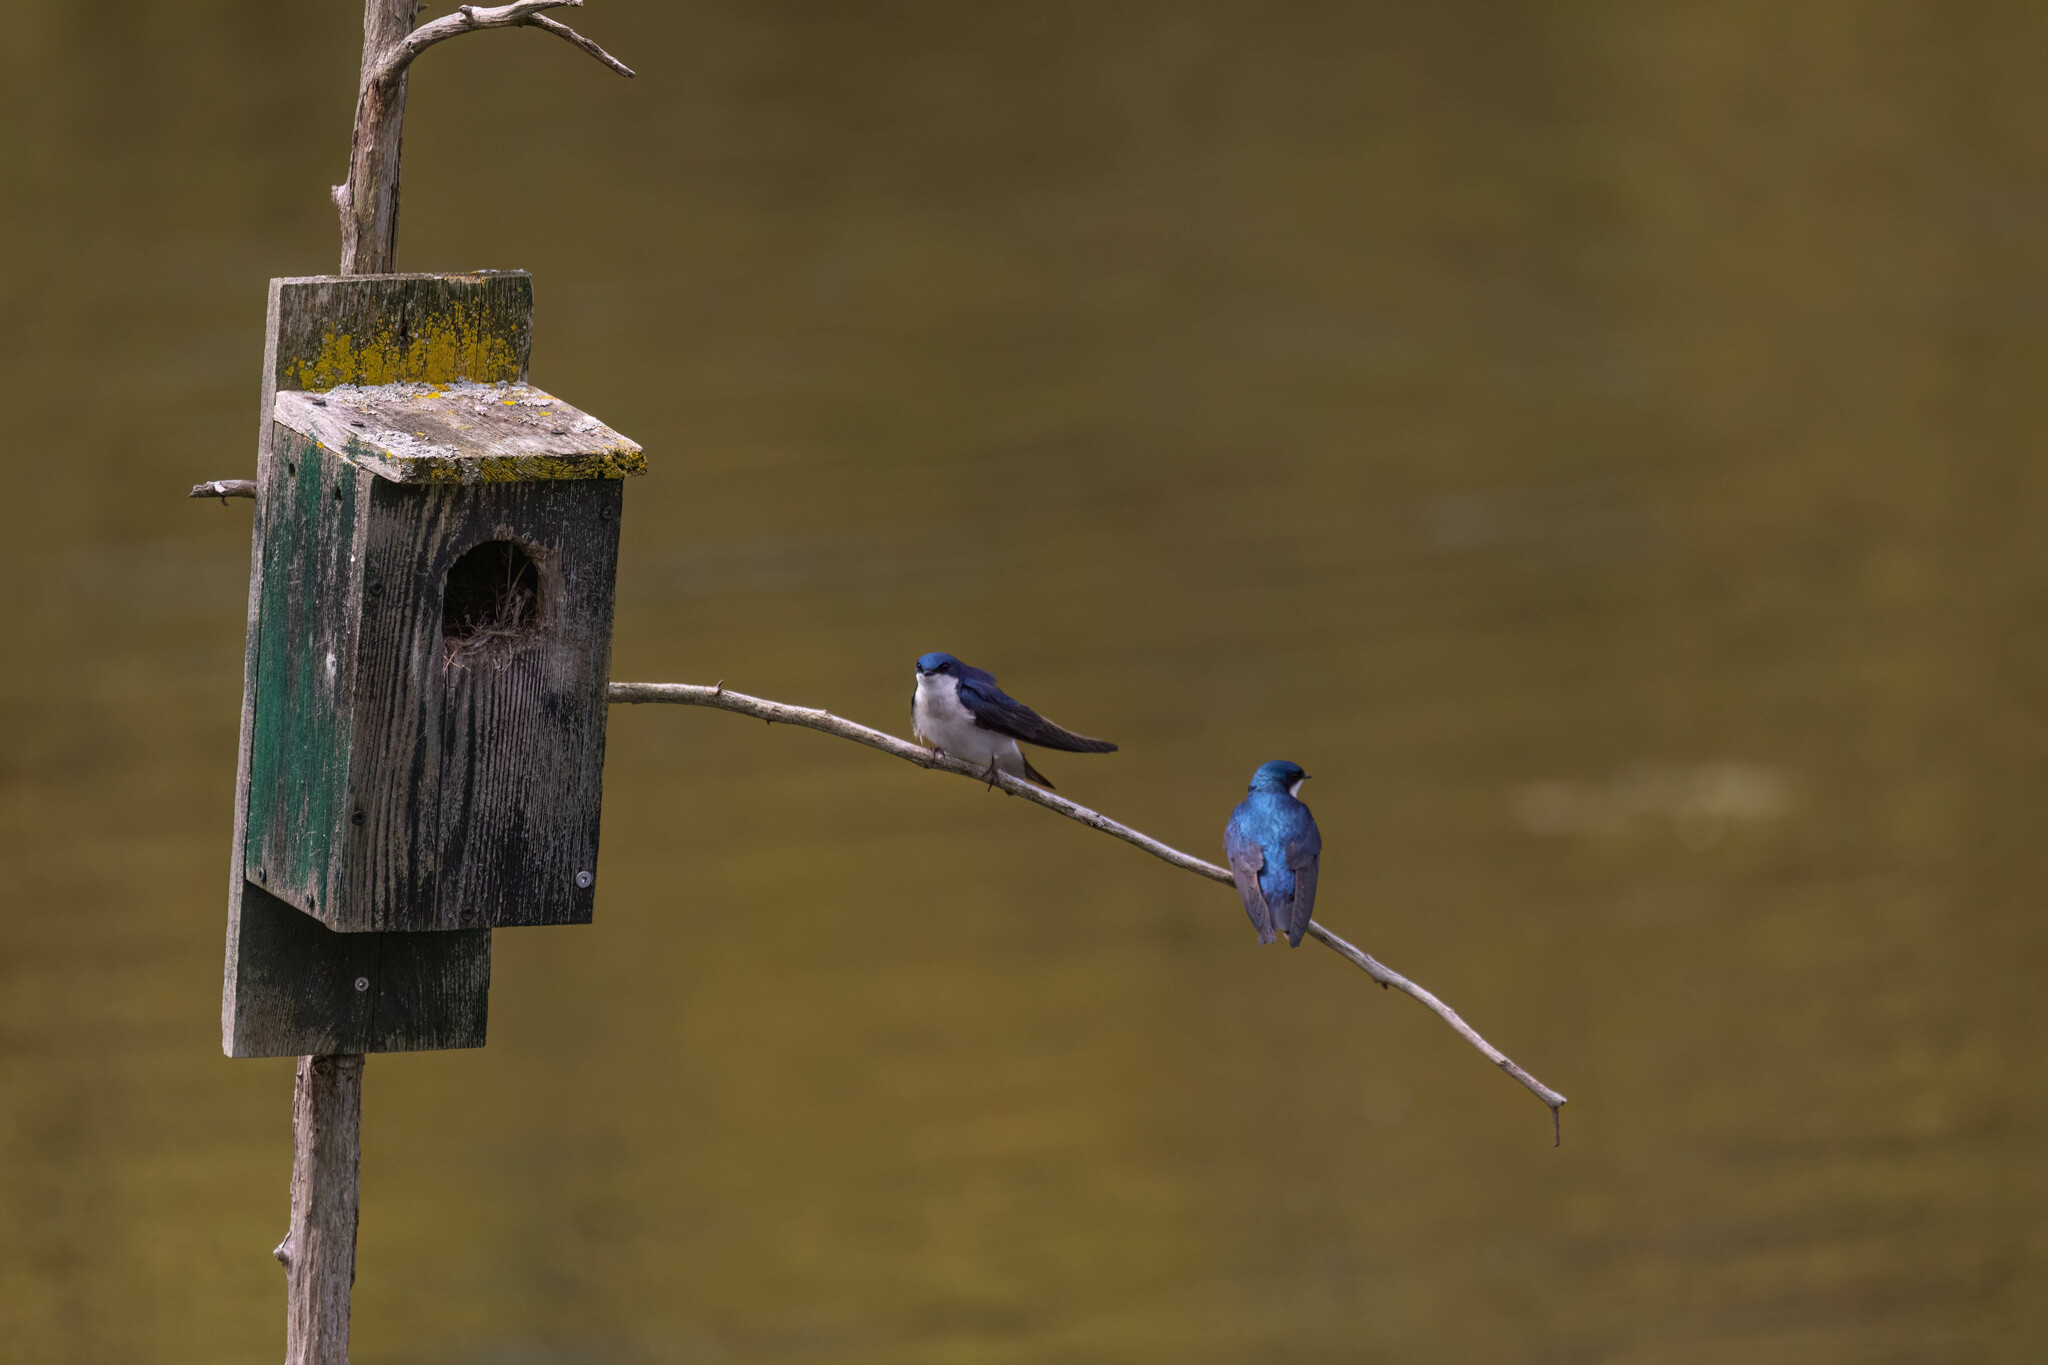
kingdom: Animalia
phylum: Chordata
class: Aves
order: Passeriformes
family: Hirundinidae
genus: Tachycineta
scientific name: Tachycineta bicolor
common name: Tree swallow
